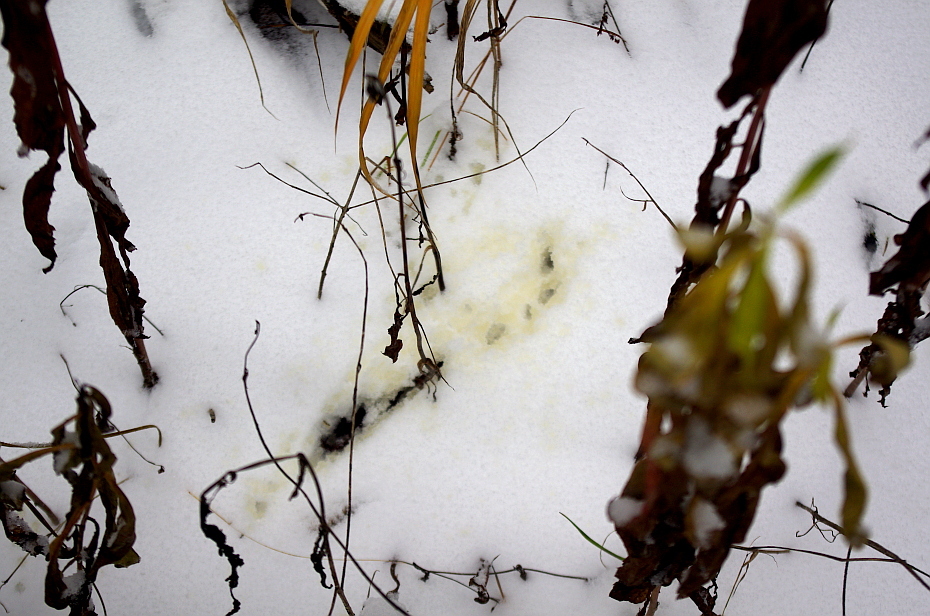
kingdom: Animalia
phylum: Chordata
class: Mammalia
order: Carnivora
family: Canidae
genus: Vulpes
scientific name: Vulpes vulpes
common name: Red fox
